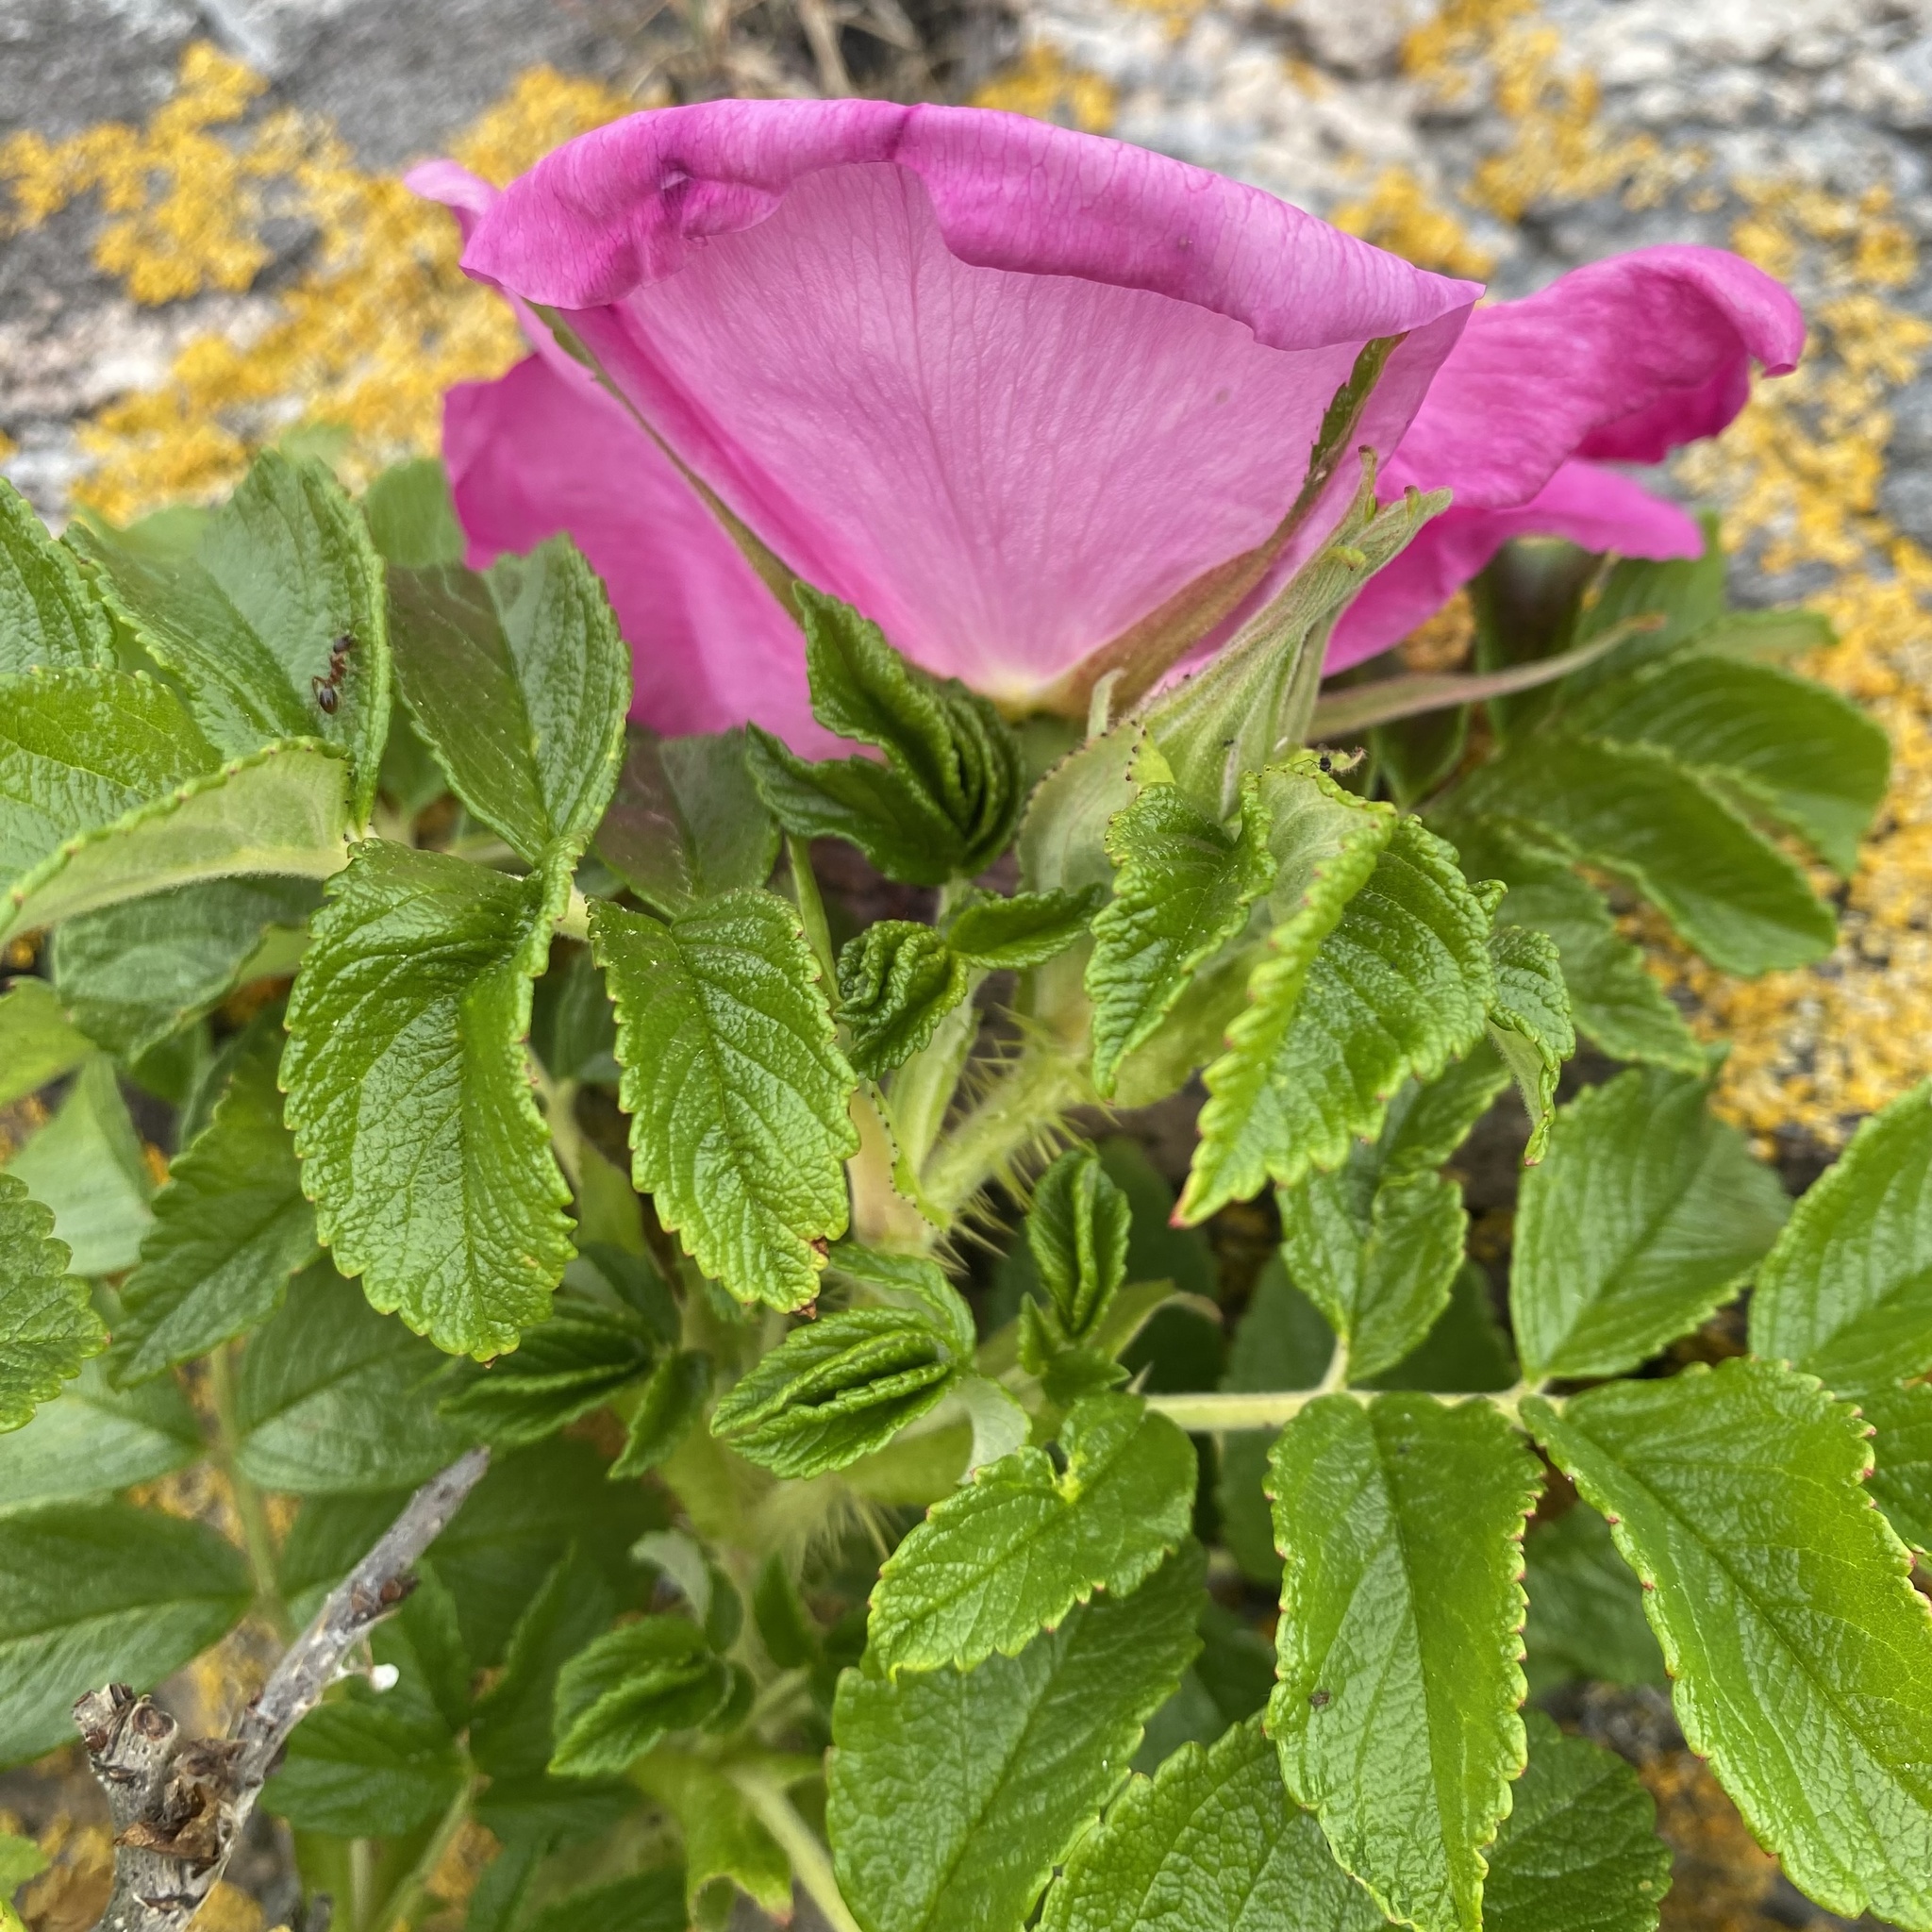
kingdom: Plantae
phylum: Tracheophyta
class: Magnoliopsida
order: Rosales
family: Rosaceae
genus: Rosa
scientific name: Rosa rugosa
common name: Japanese rose
